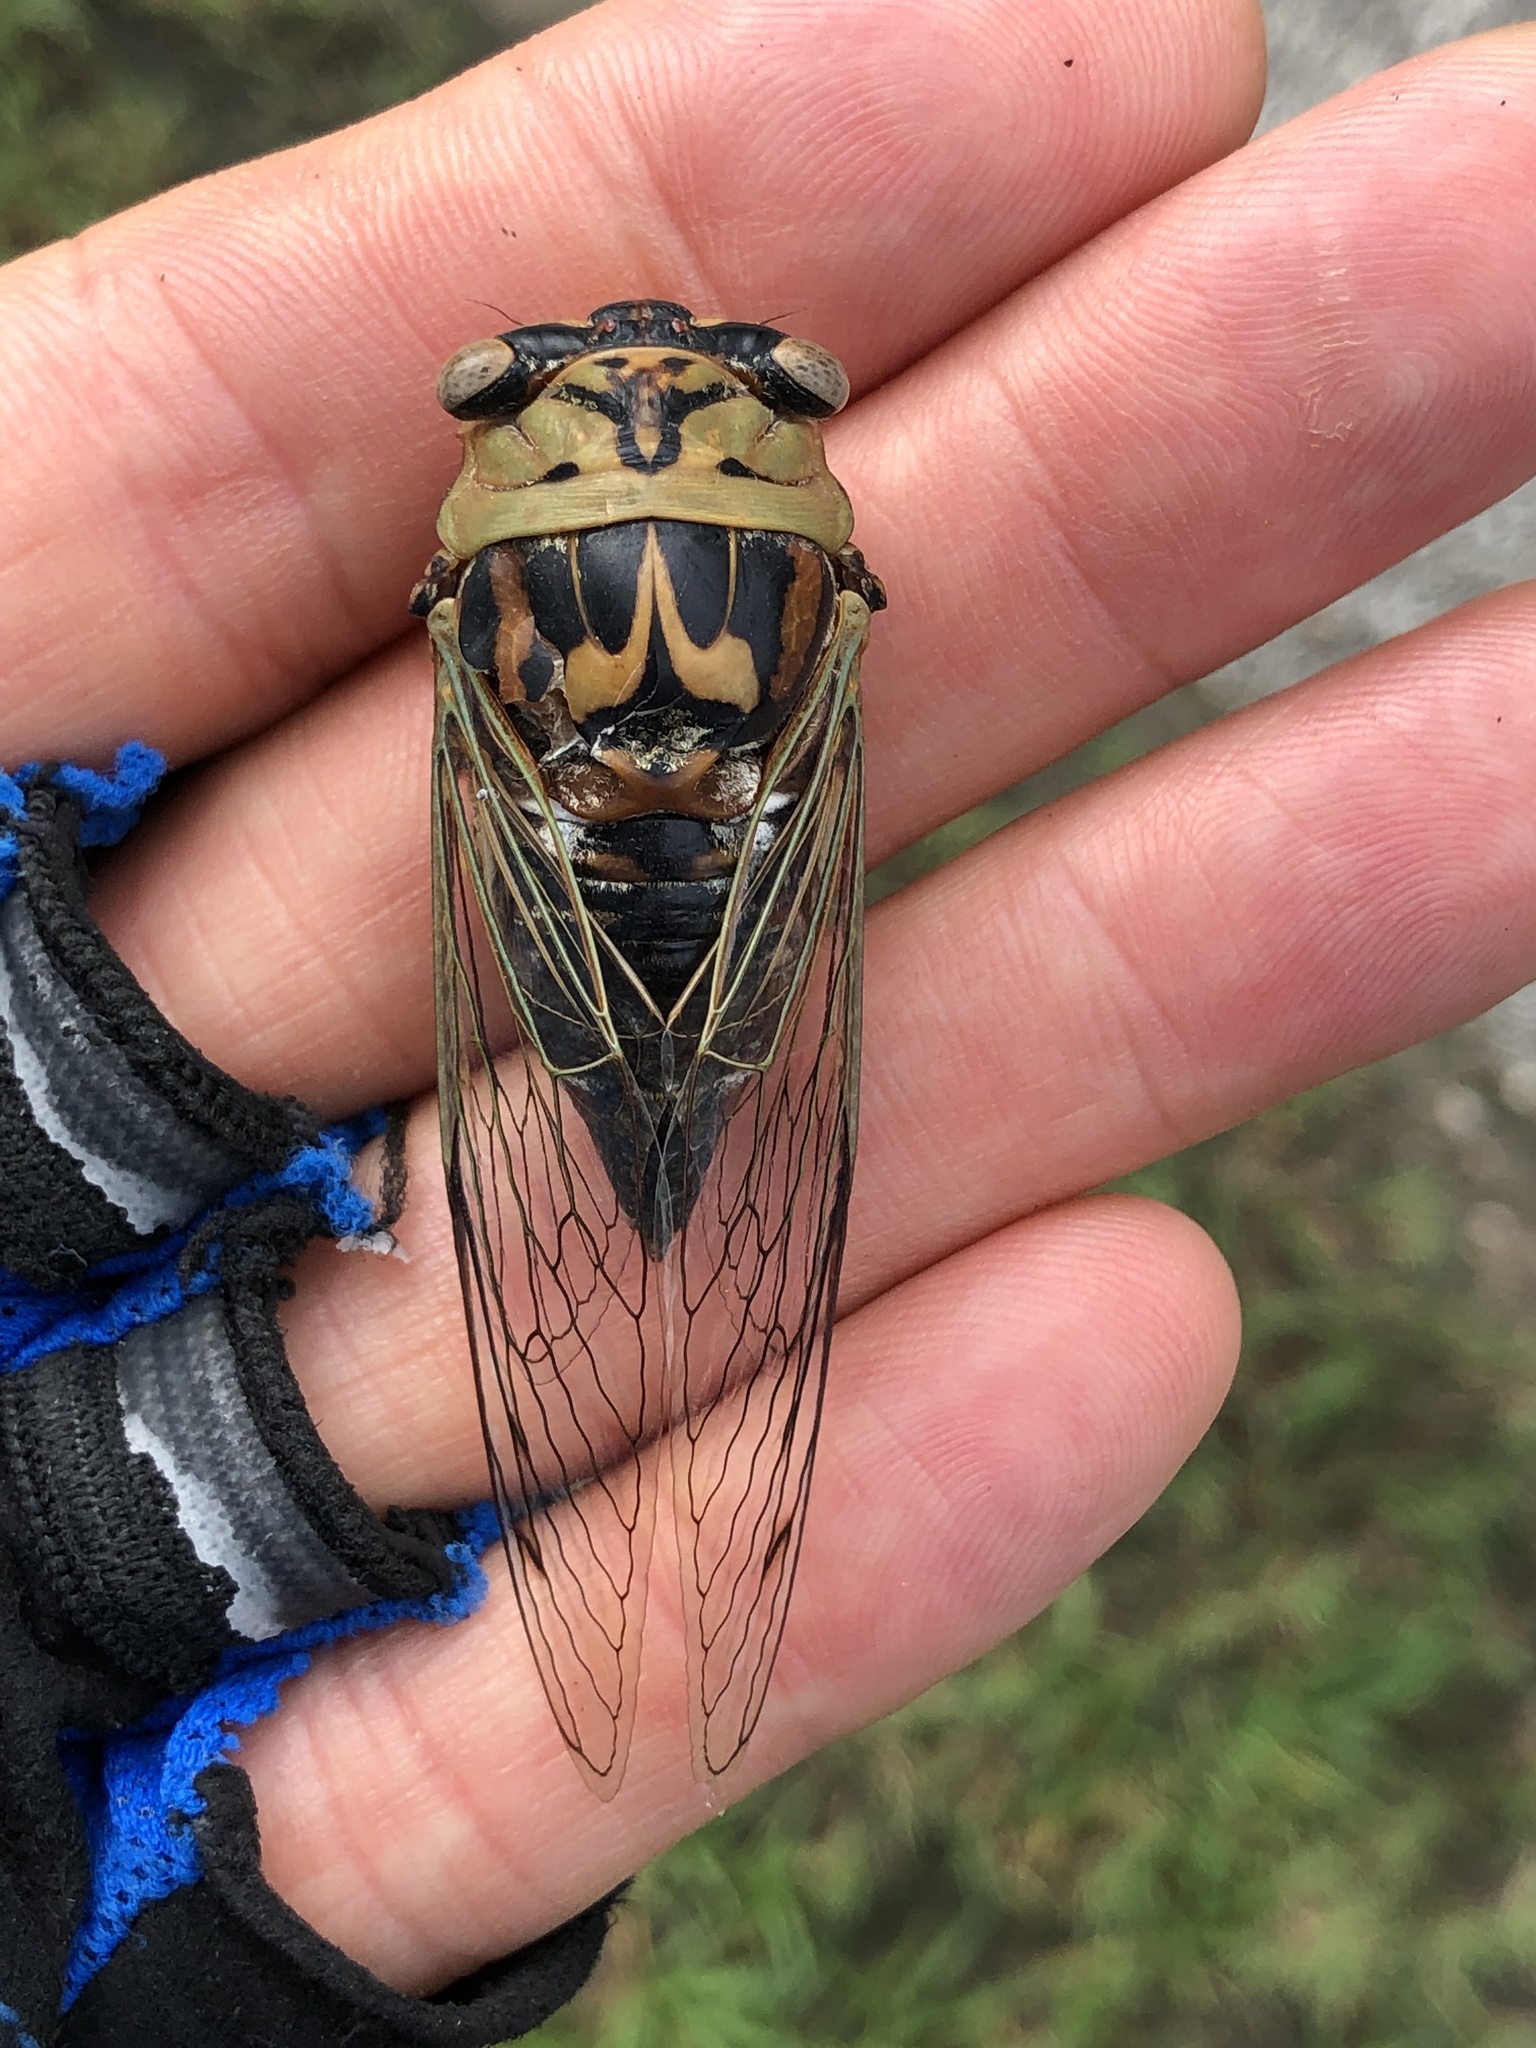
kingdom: Animalia
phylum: Arthropoda
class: Insecta
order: Hemiptera
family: Cicadidae
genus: Megatibicen
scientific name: Megatibicen resh
